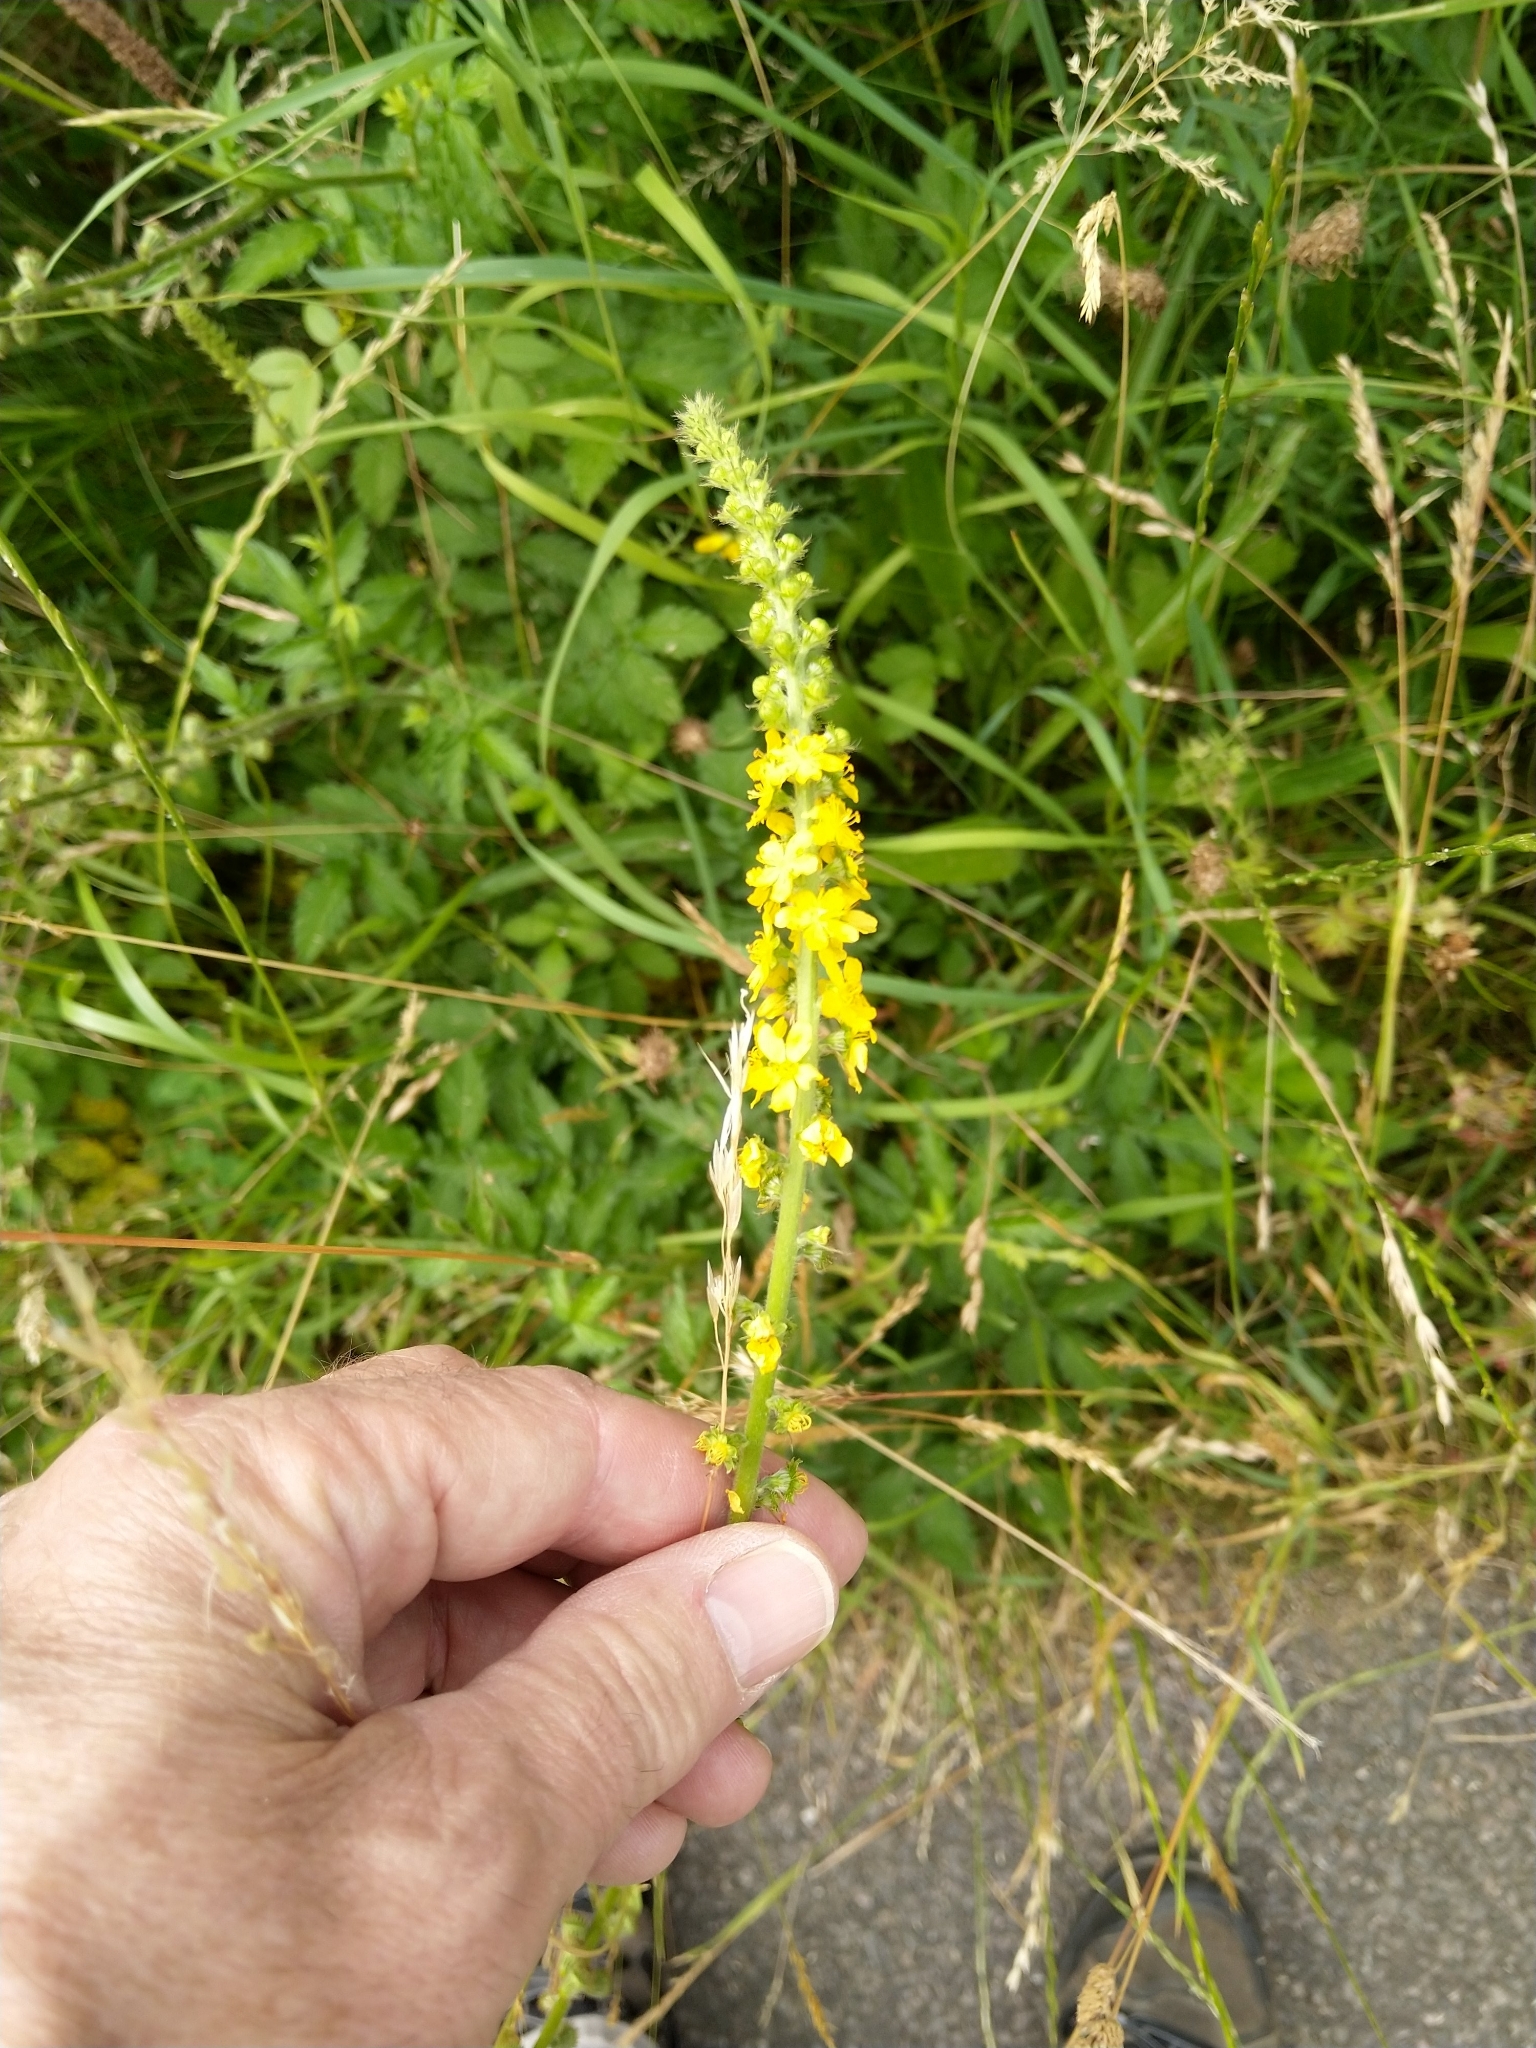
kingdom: Plantae
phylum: Tracheophyta
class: Magnoliopsida
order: Rosales
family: Rosaceae
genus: Agrimonia
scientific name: Agrimonia eupatoria
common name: Agrimony
